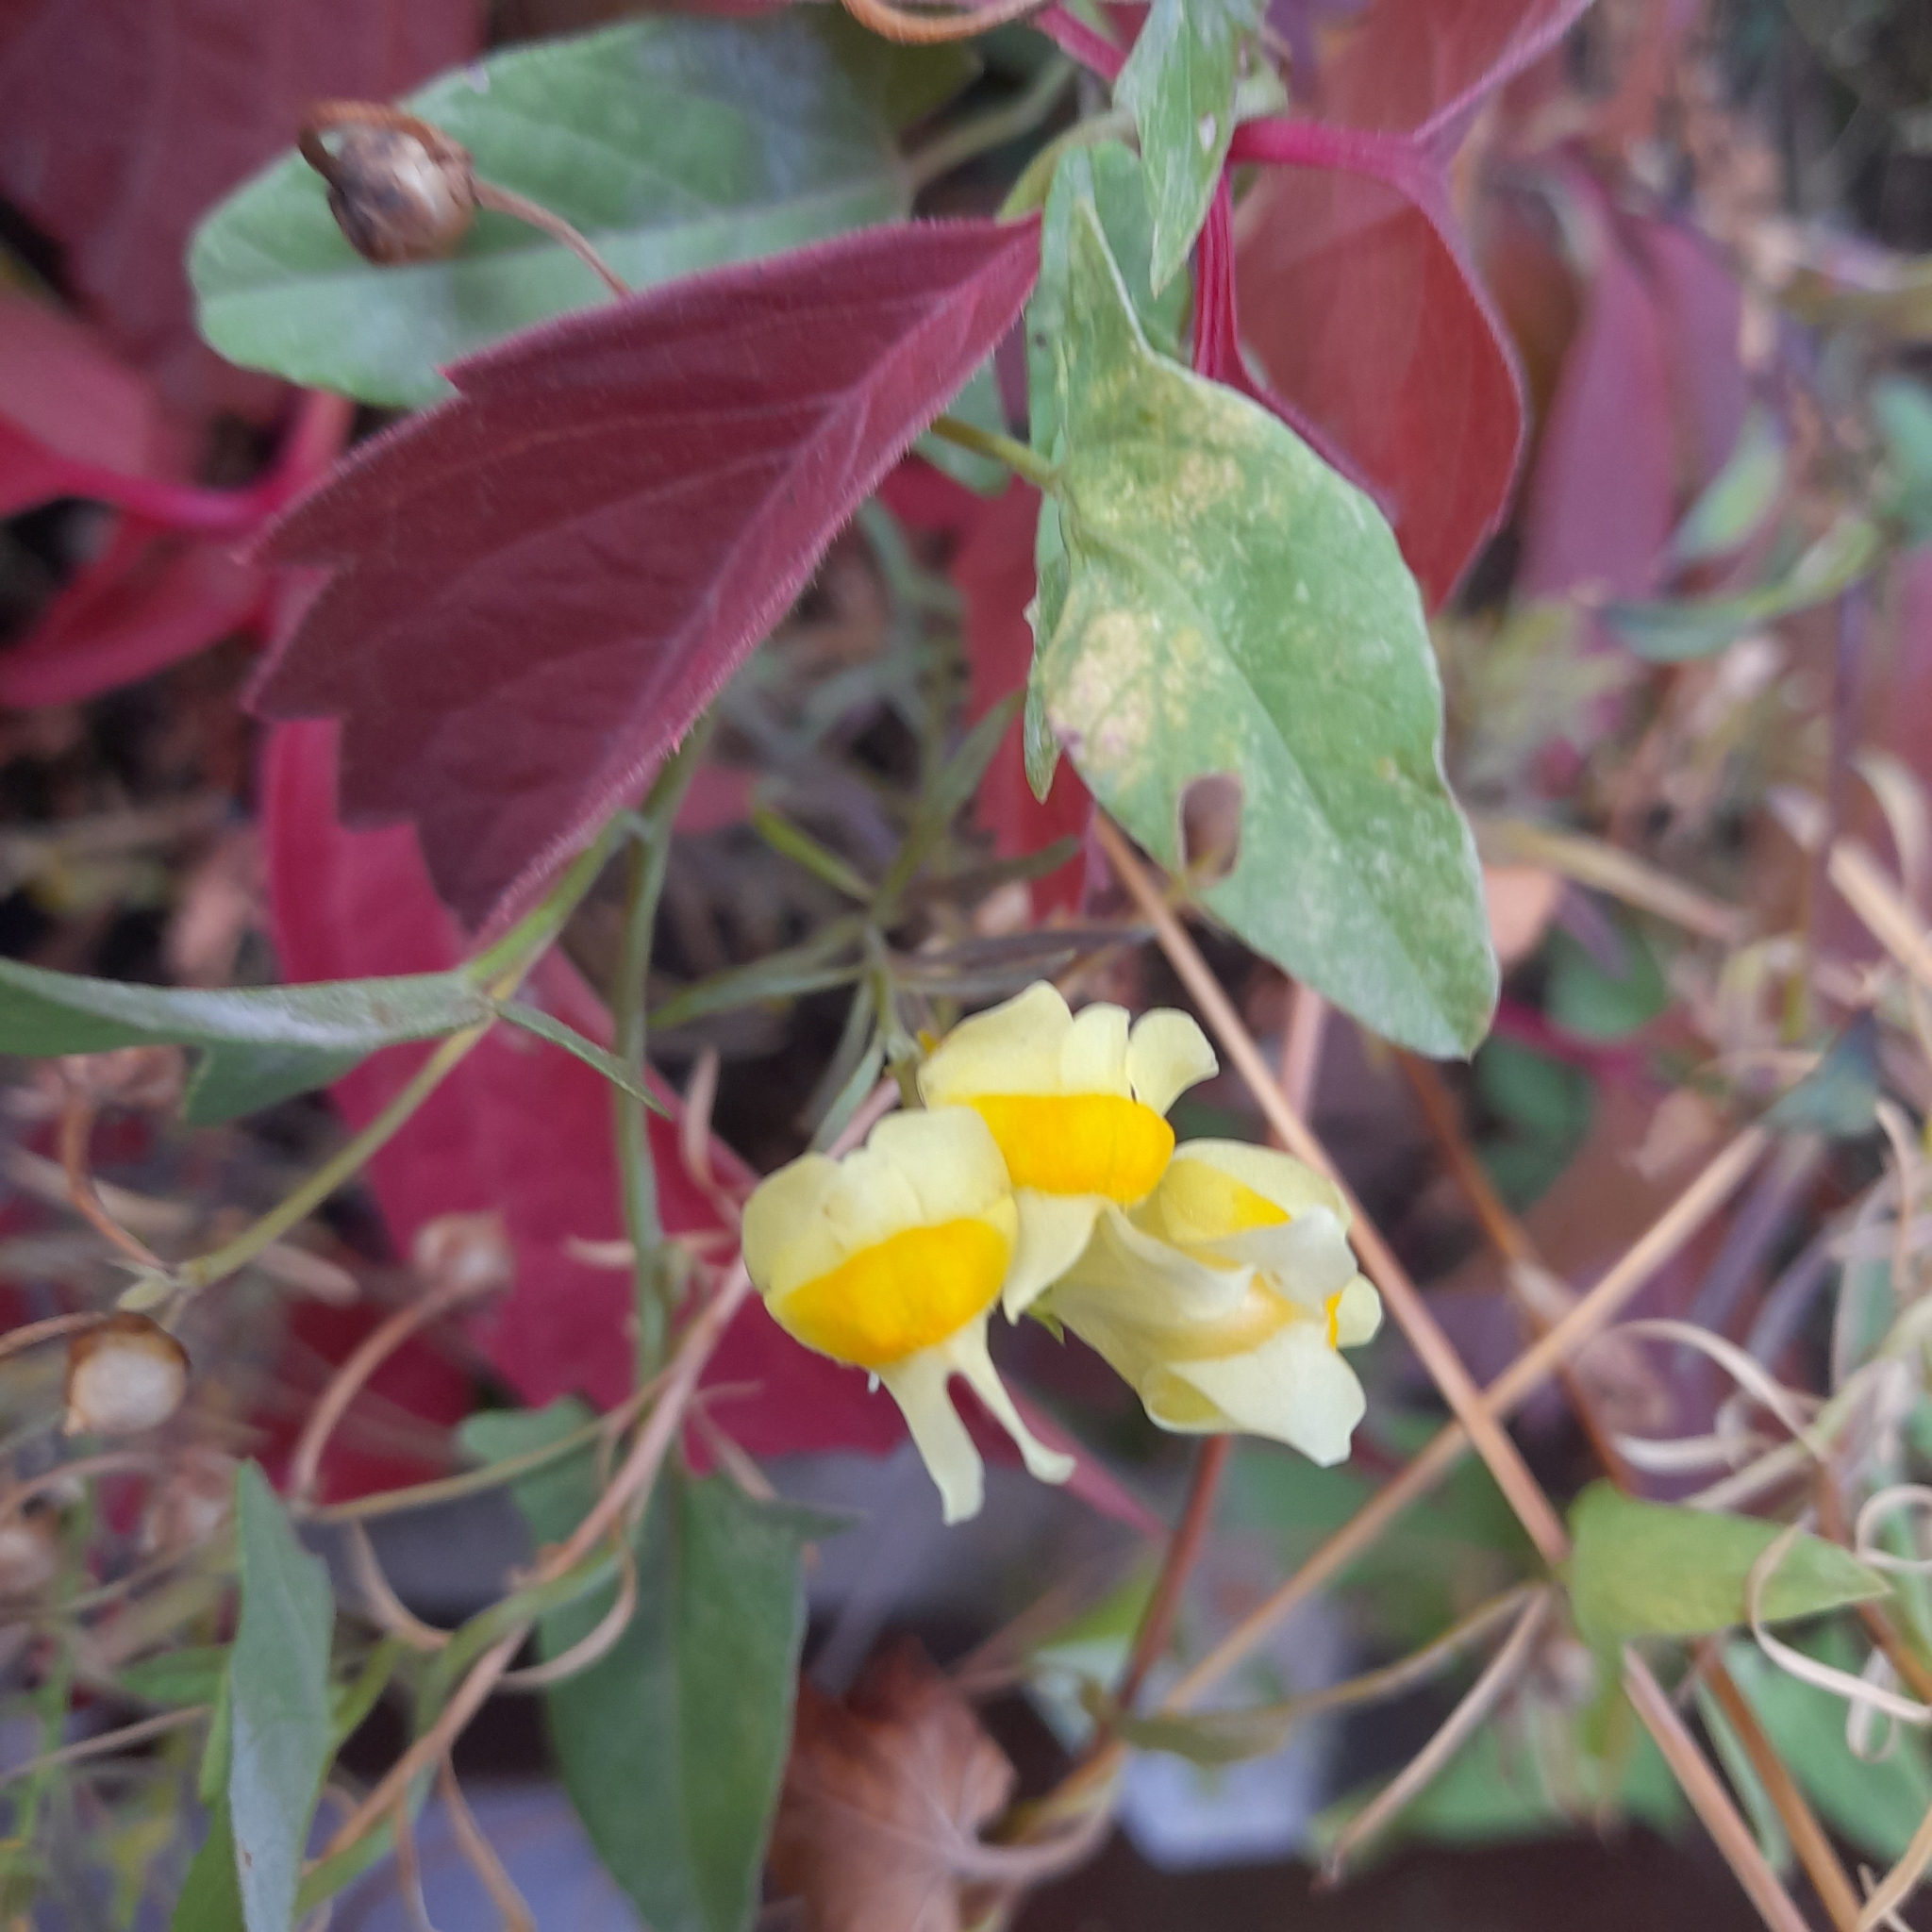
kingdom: Plantae
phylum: Tracheophyta
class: Magnoliopsida
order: Lamiales
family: Plantaginaceae
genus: Linaria
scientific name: Linaria vulgaris
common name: Butter and eggs
